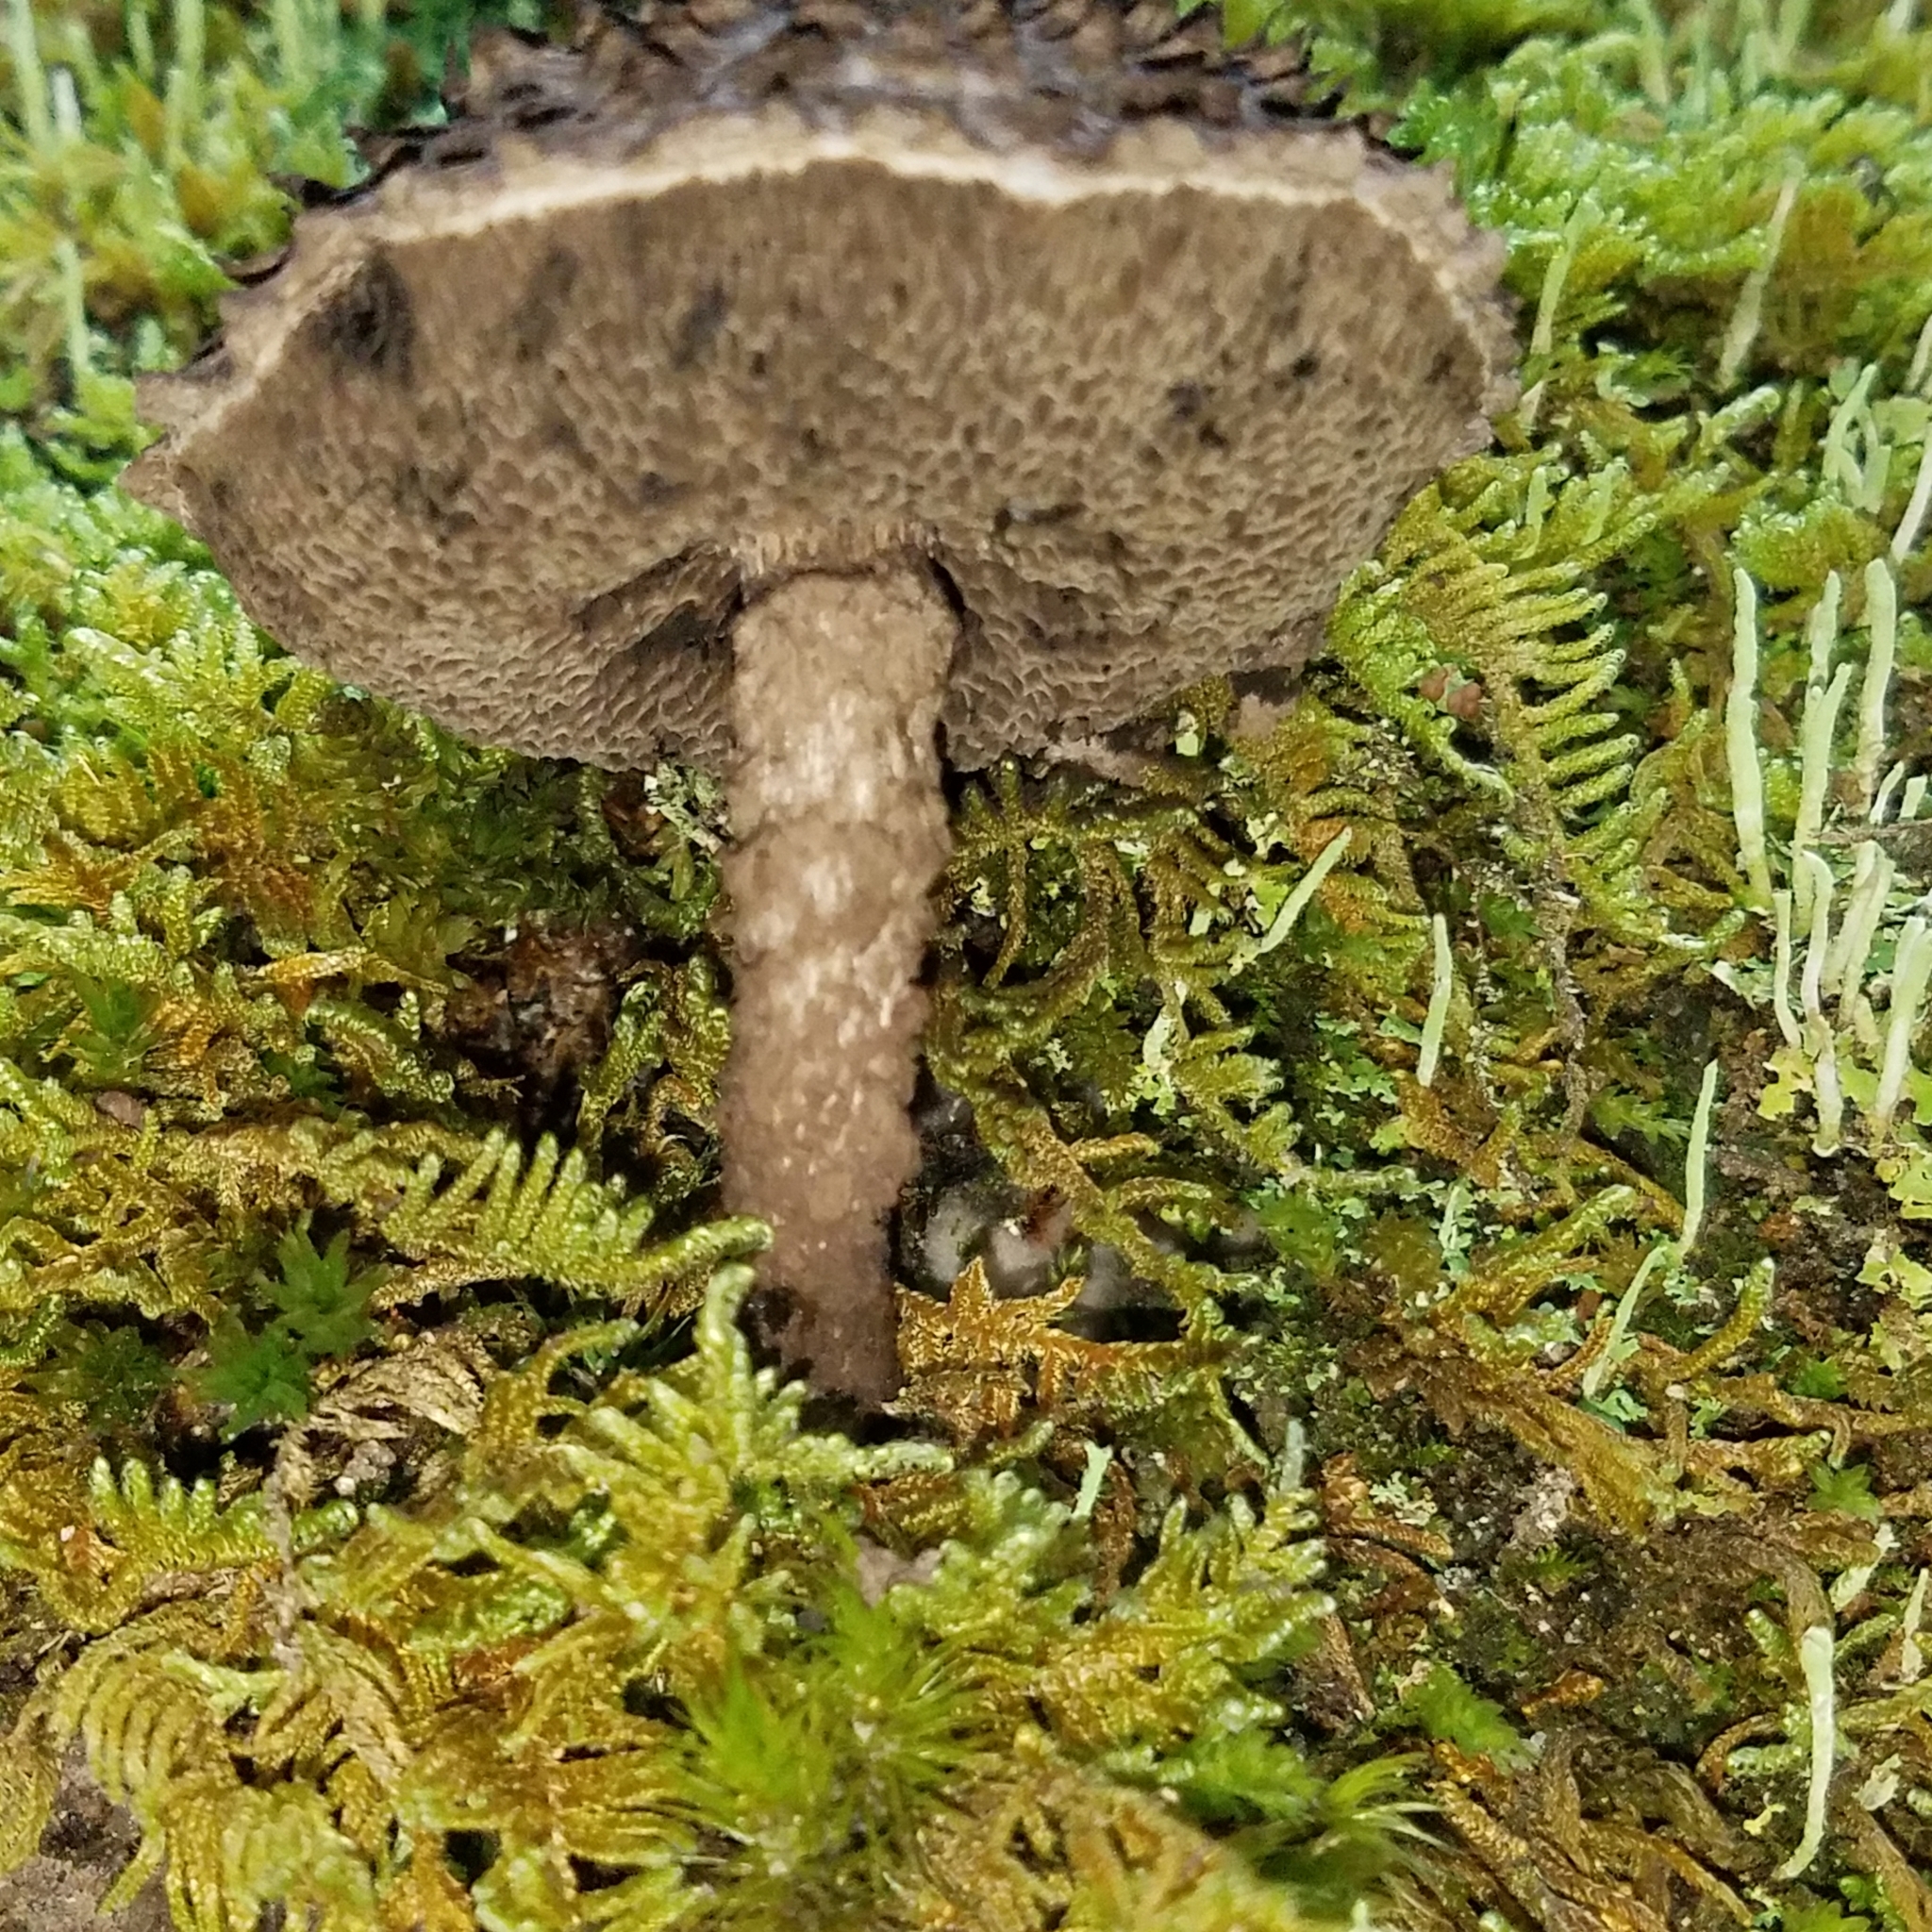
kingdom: Fungi
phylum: Basidiomycota
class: Agaricomycetes
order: Boletales
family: Boletaceae
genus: Strobilomyces
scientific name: Strobilomyces strobilaceus
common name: Old man of the woods
